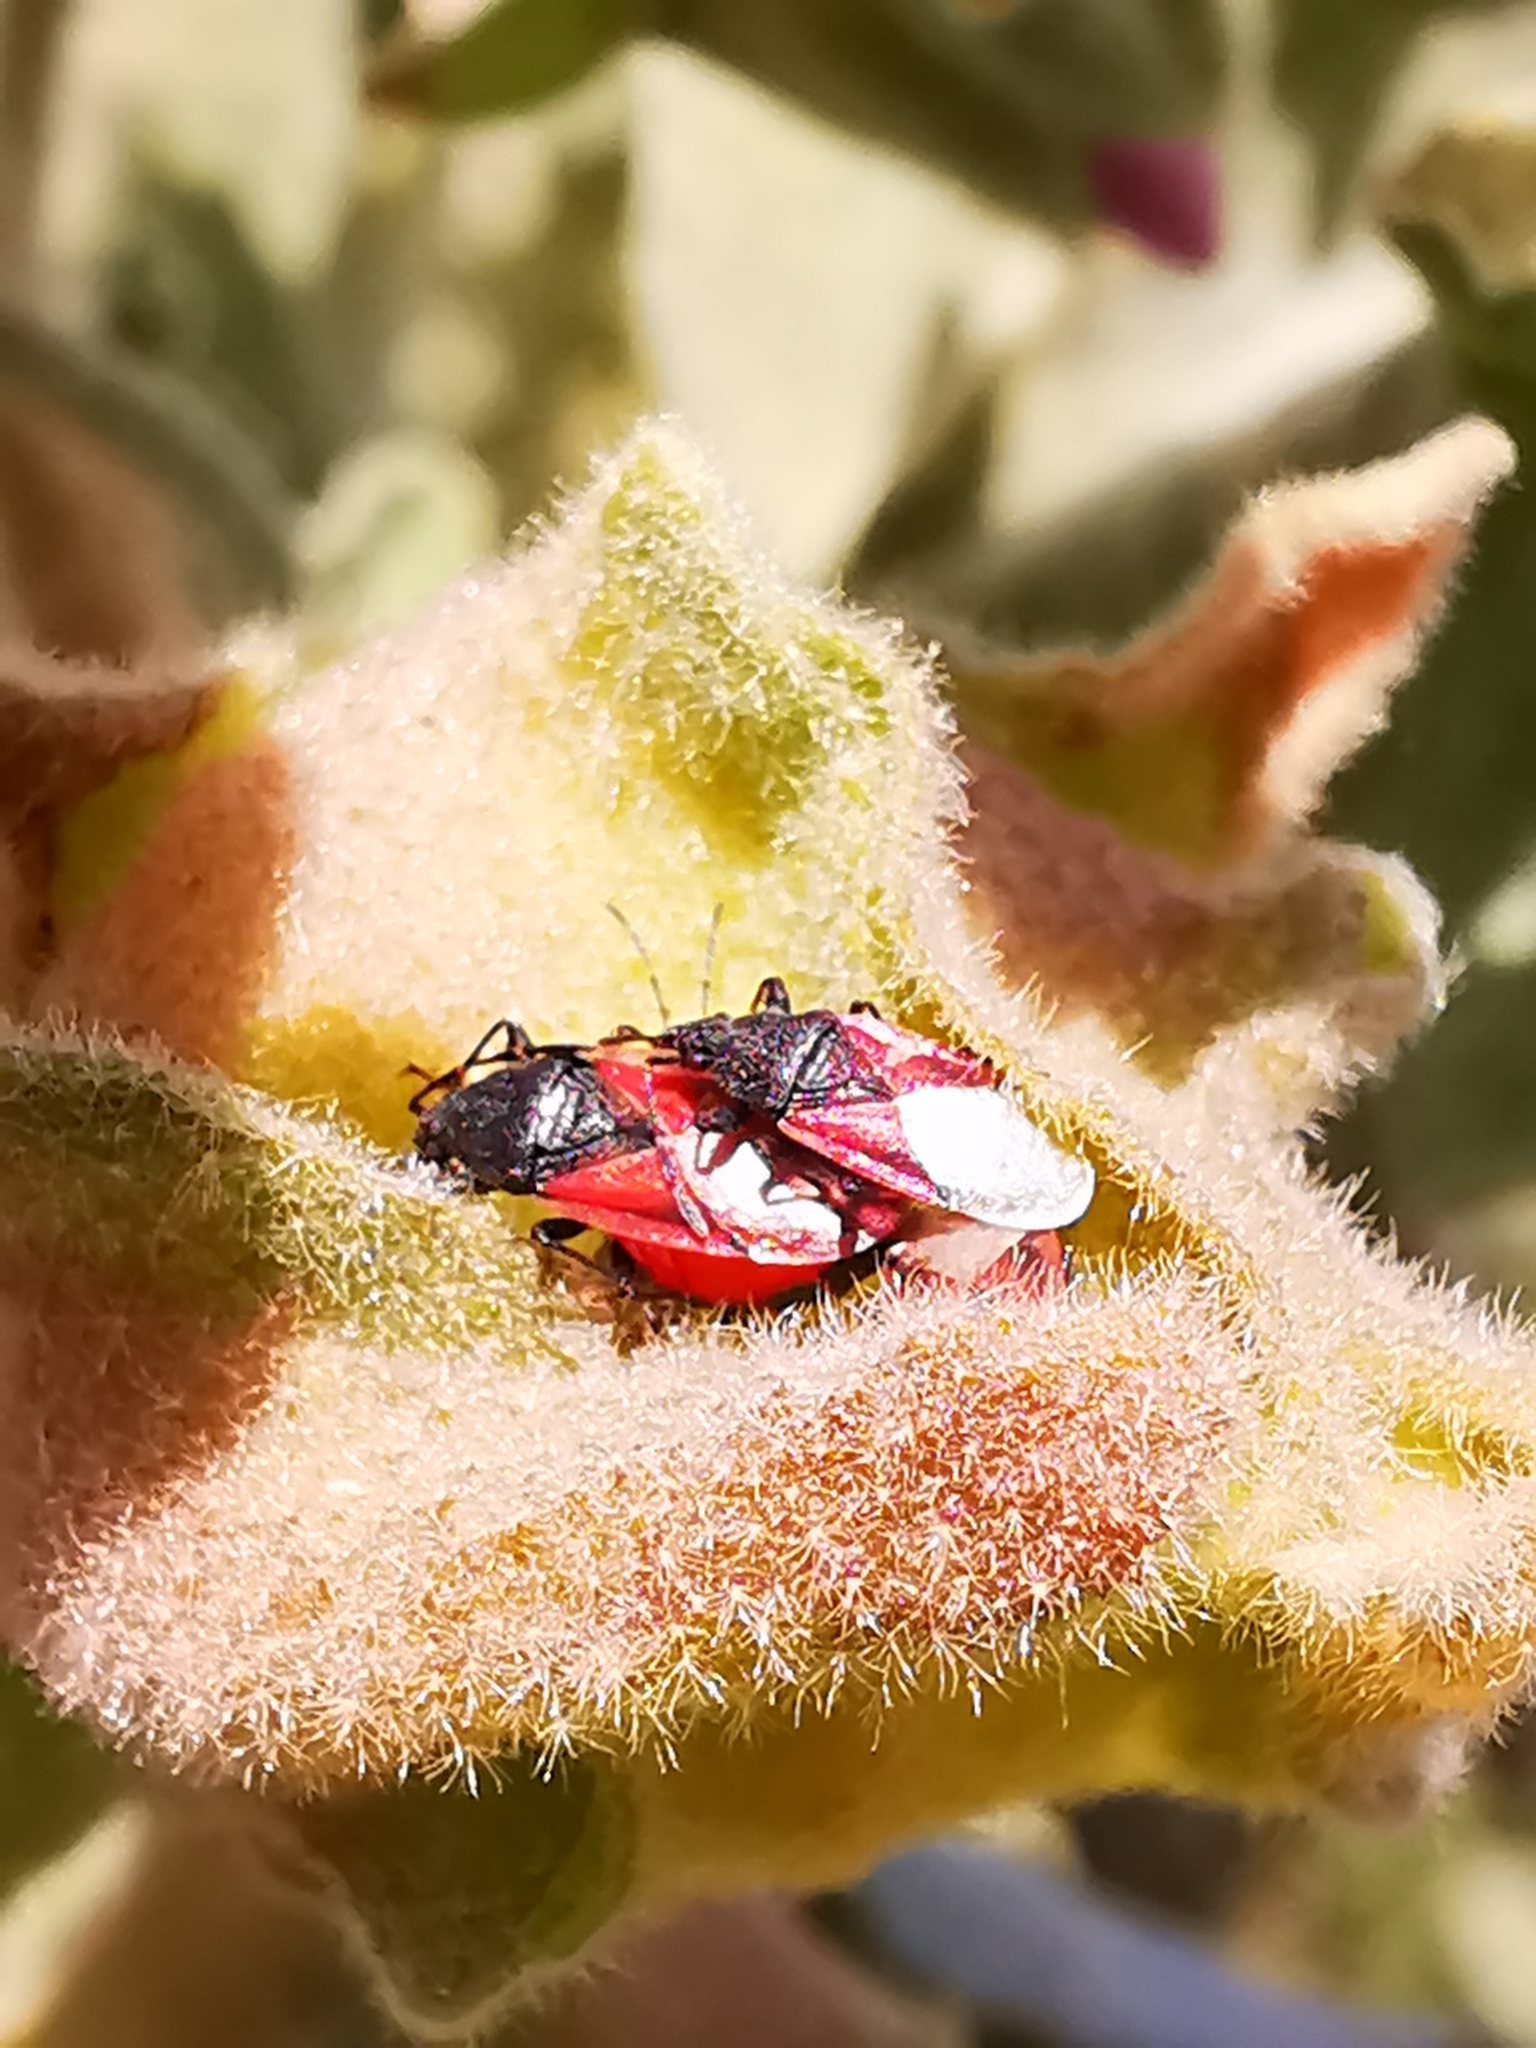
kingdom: Animalia
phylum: Arthropoda
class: Insecta
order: Hemiptera
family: Oxycarenidae
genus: Oxycarenus
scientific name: Oxycarenus lavaterae
